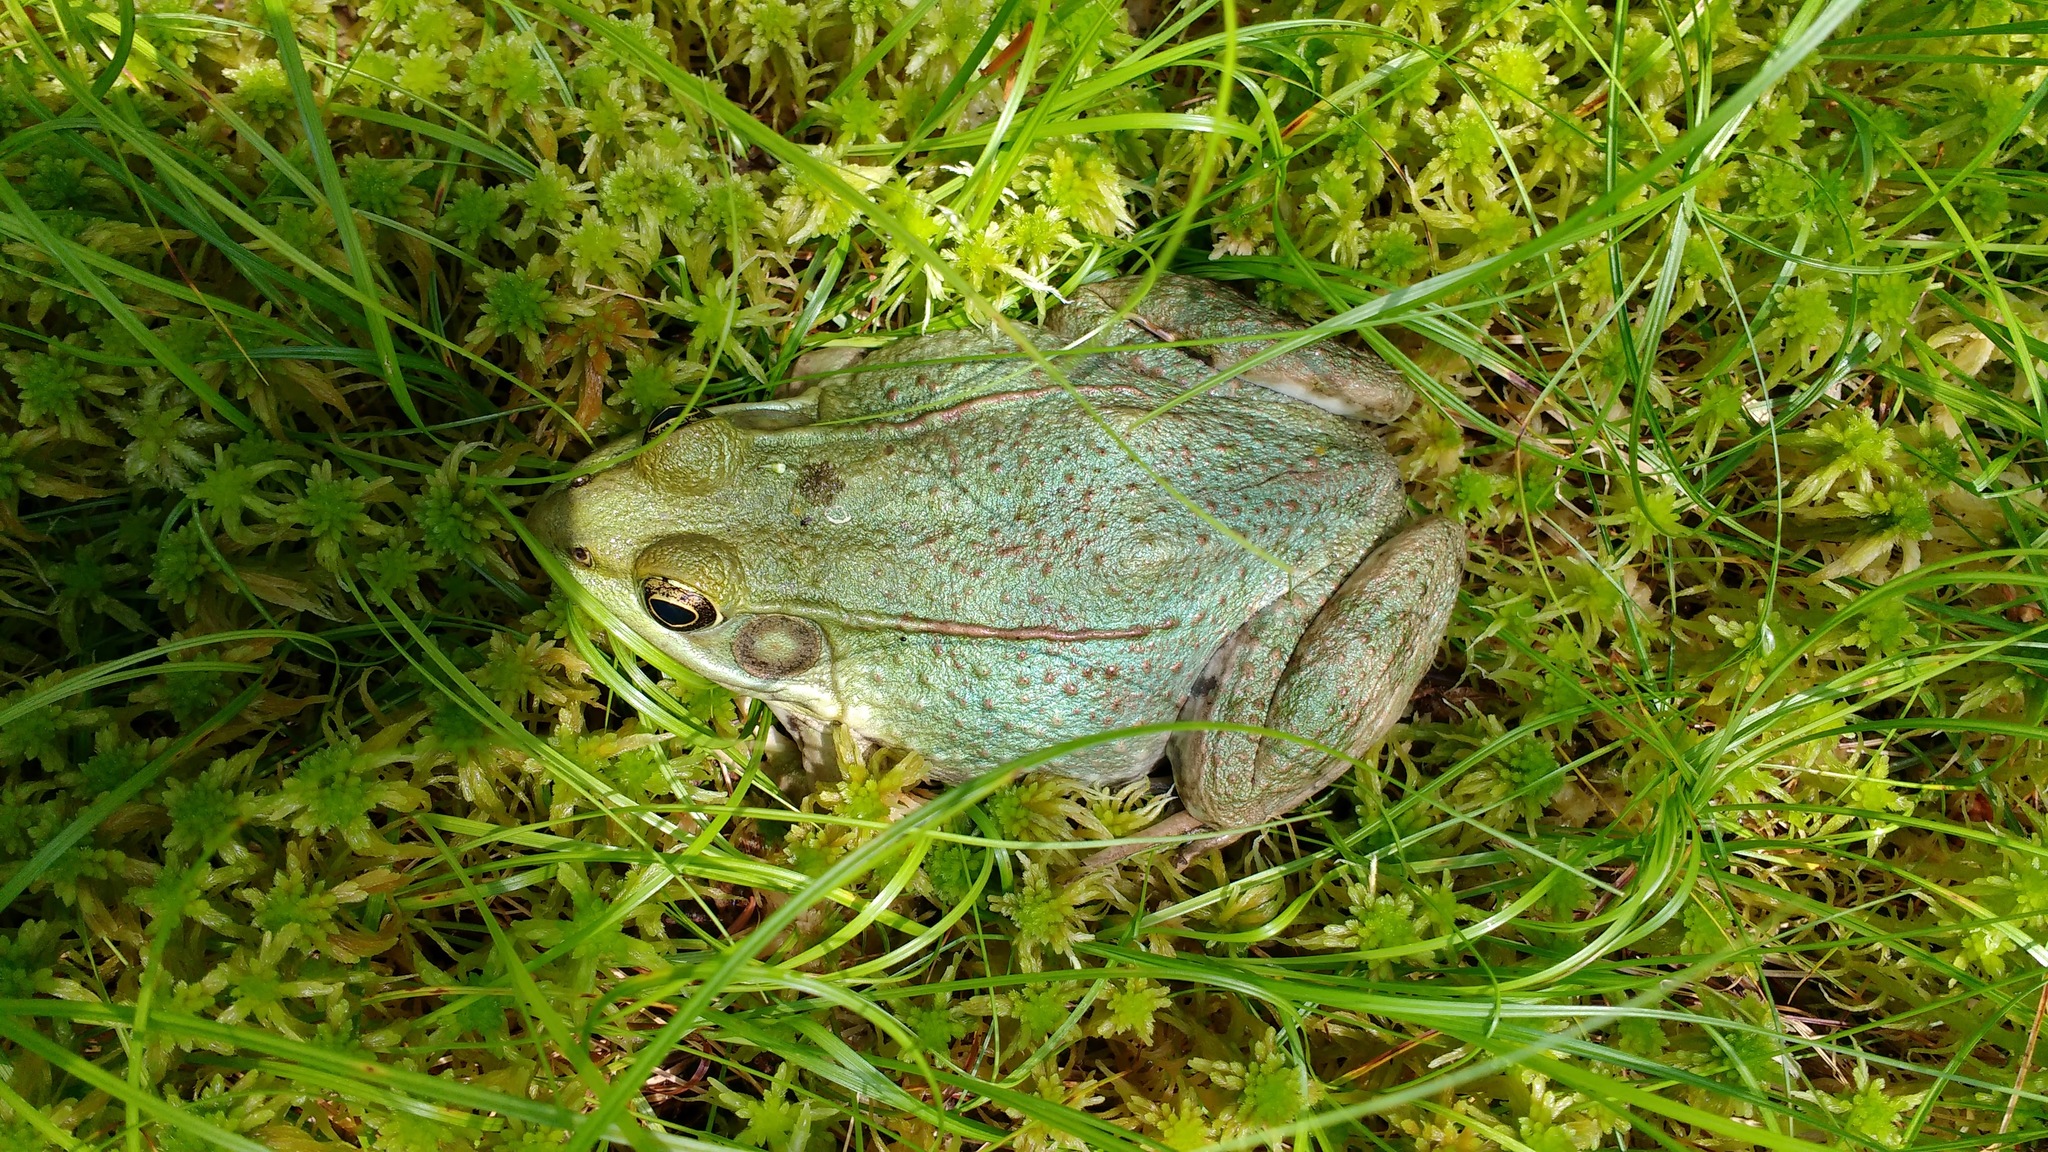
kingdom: Animalia
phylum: Chordata
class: Amphibia
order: Anura
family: Ranidae
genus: Lithobates
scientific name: Lithobates clamitans
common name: Green frog
